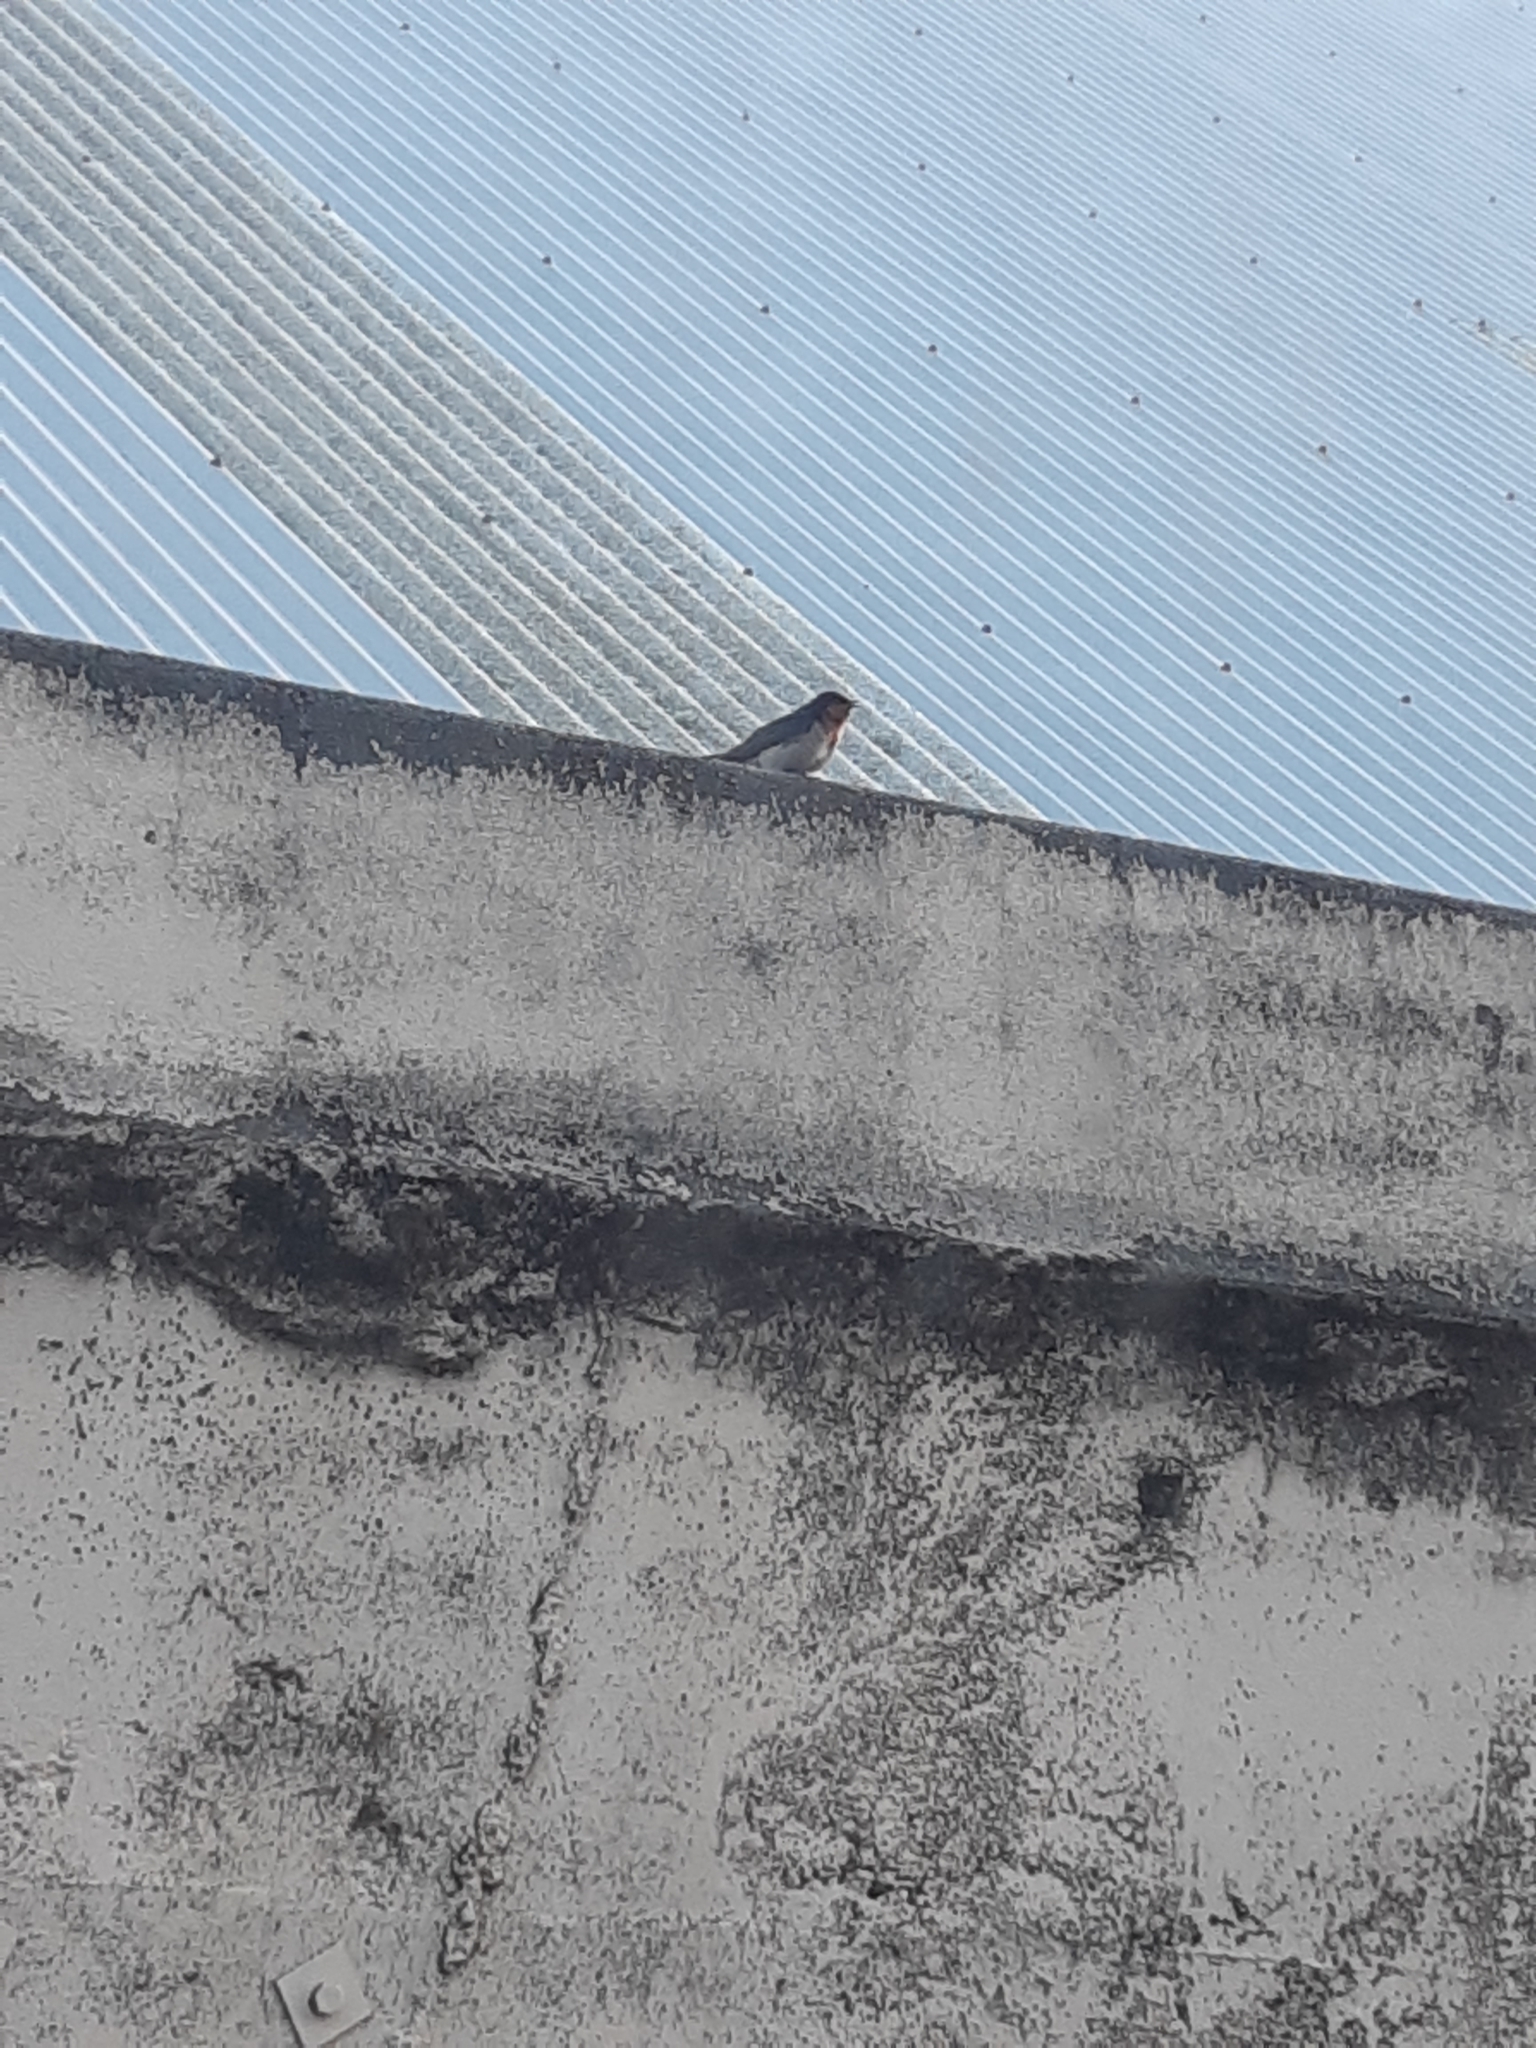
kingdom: Animalia
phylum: Chordata
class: Aves
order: Passeriformes
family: Hirundinidae
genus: Hirundo
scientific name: Hirundo neoxena
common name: Welcome swallow
